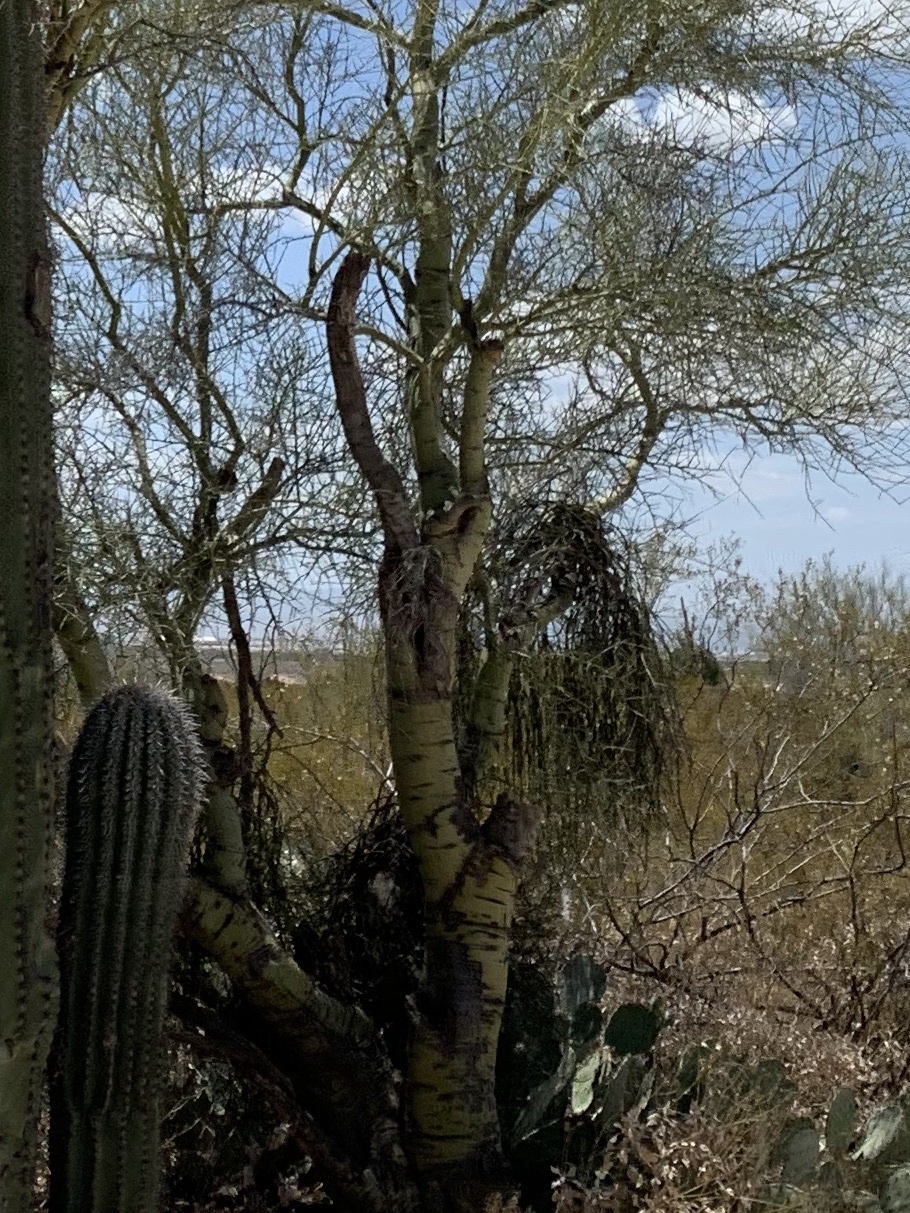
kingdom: Plantae
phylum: Tracheophyta
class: Magnoliopsida
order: Fabales
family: Fabaceae
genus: Parkinsonia
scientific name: Parkinsonia microphylla
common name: Yellow paloverde
